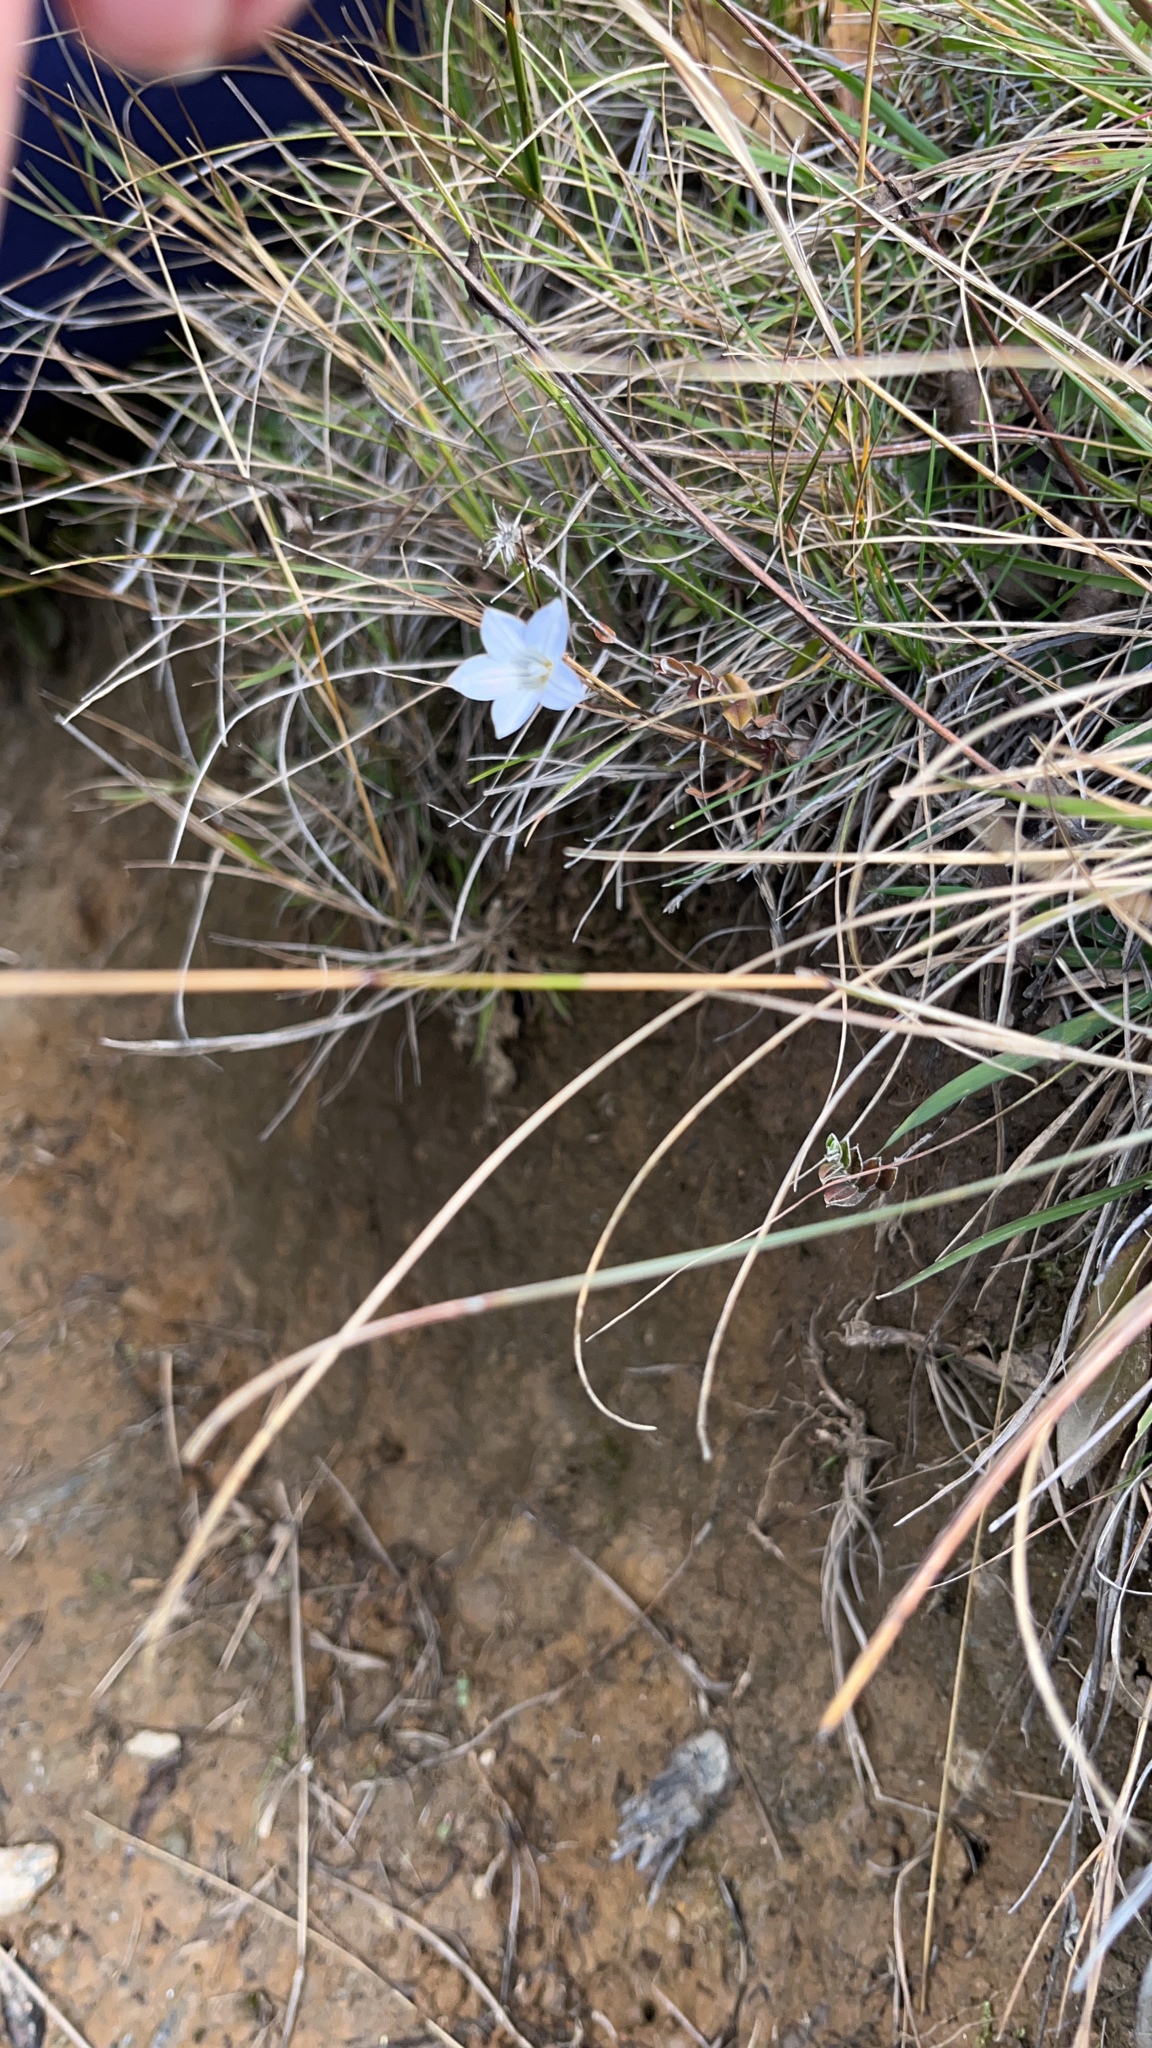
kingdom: Plantae
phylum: Tracheophyta
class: Magnoliopsida
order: Asterales
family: Campanulaceae
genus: Wahlenbergia
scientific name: Wahlenbergia albomarginata
